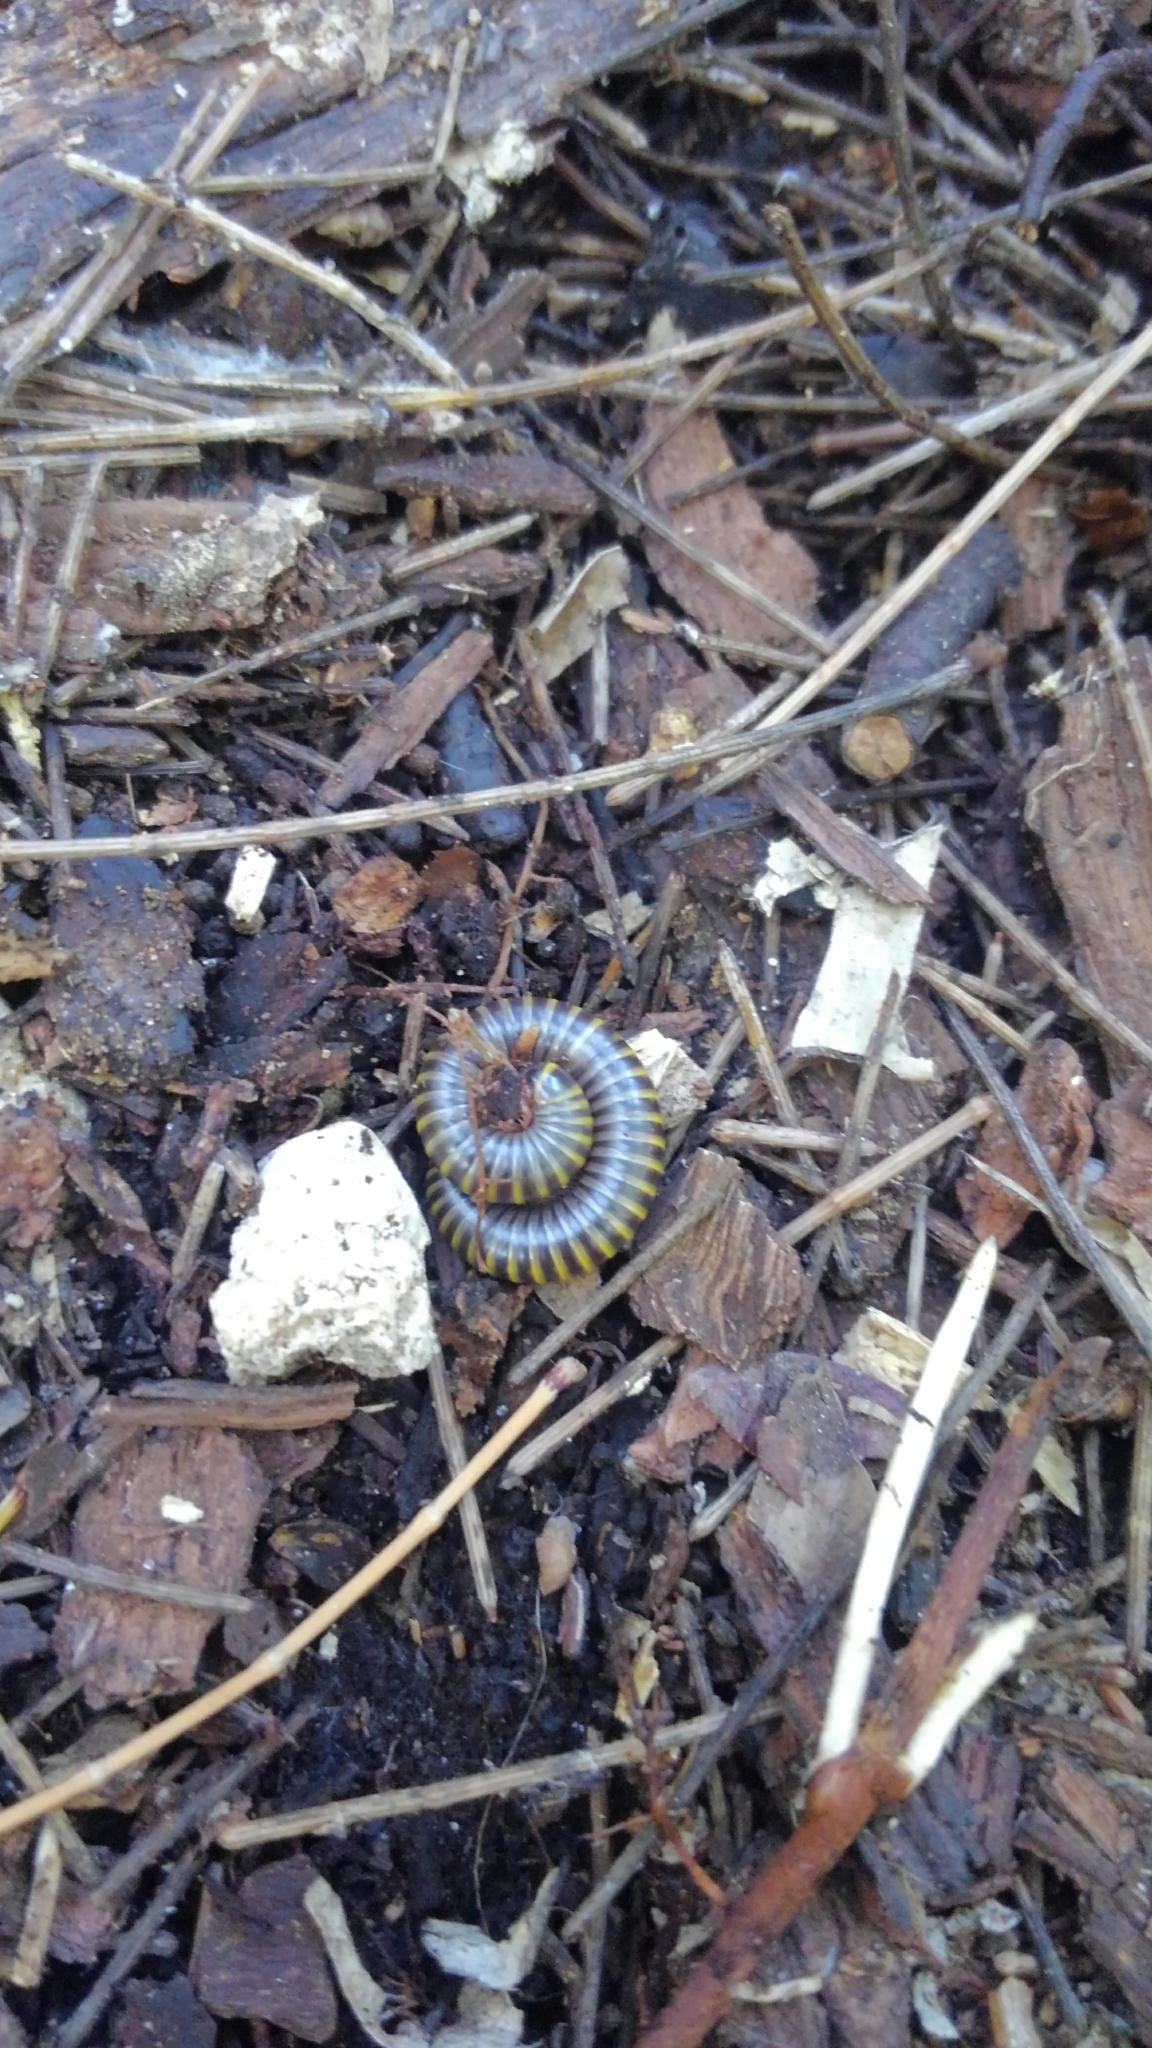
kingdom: Animalia
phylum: Arthropoda
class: Diplopoda
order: Spirobolida
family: Rhinocricidae
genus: Anadenobolus
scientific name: Anadenobolus monilicornis
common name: Caribbean millipede
